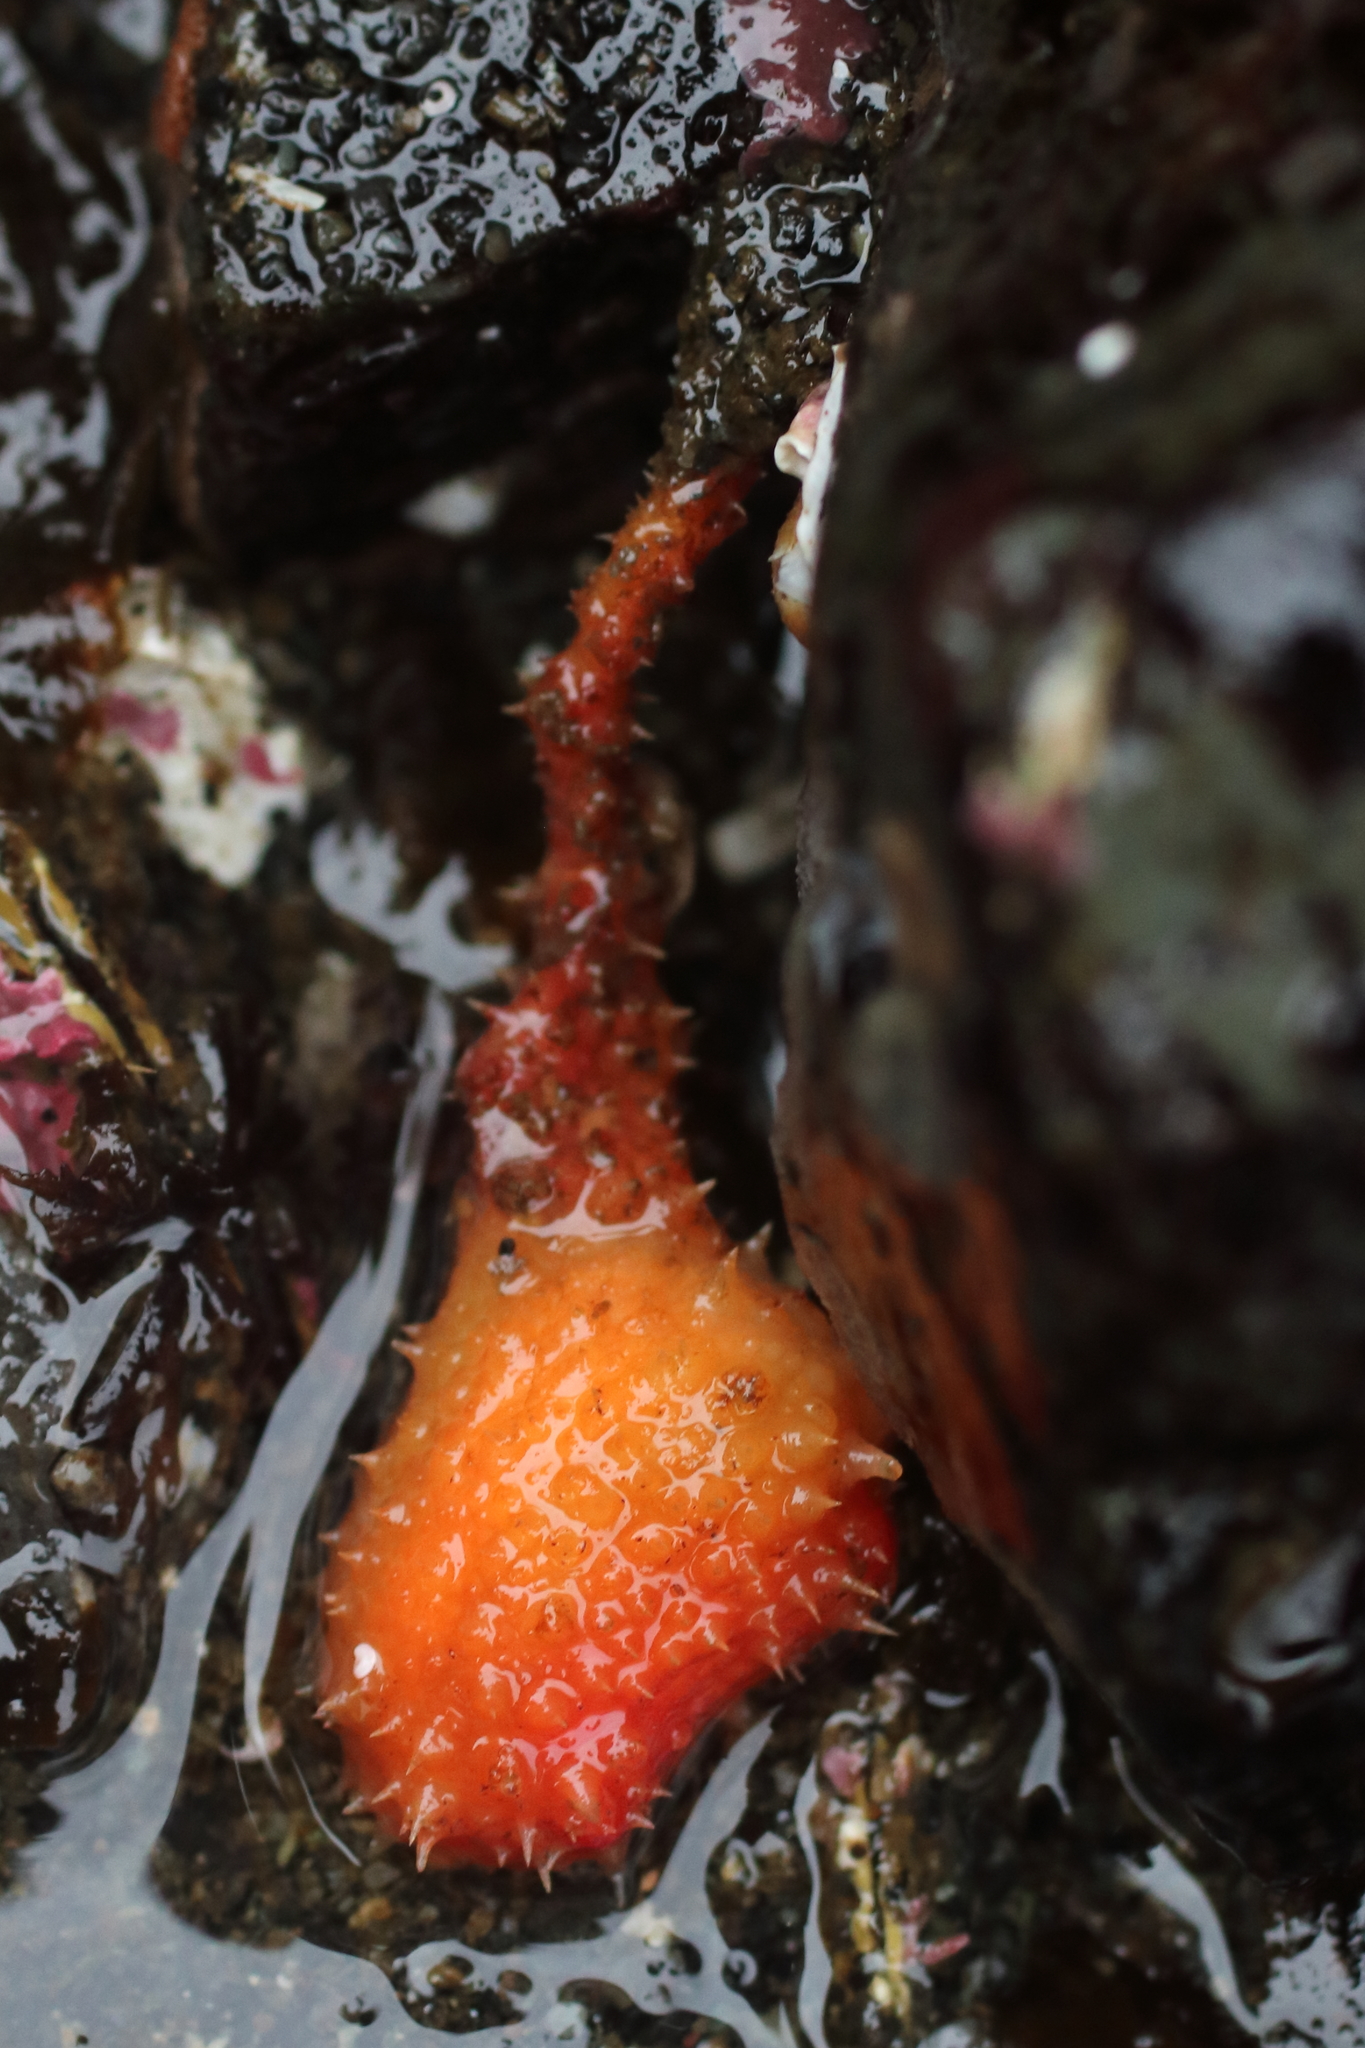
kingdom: Animalia
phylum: Chordata
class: Ascidiacea
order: Stolidobranchia
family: Pyuridae
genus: Boltenia
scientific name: Boltenia villosa
